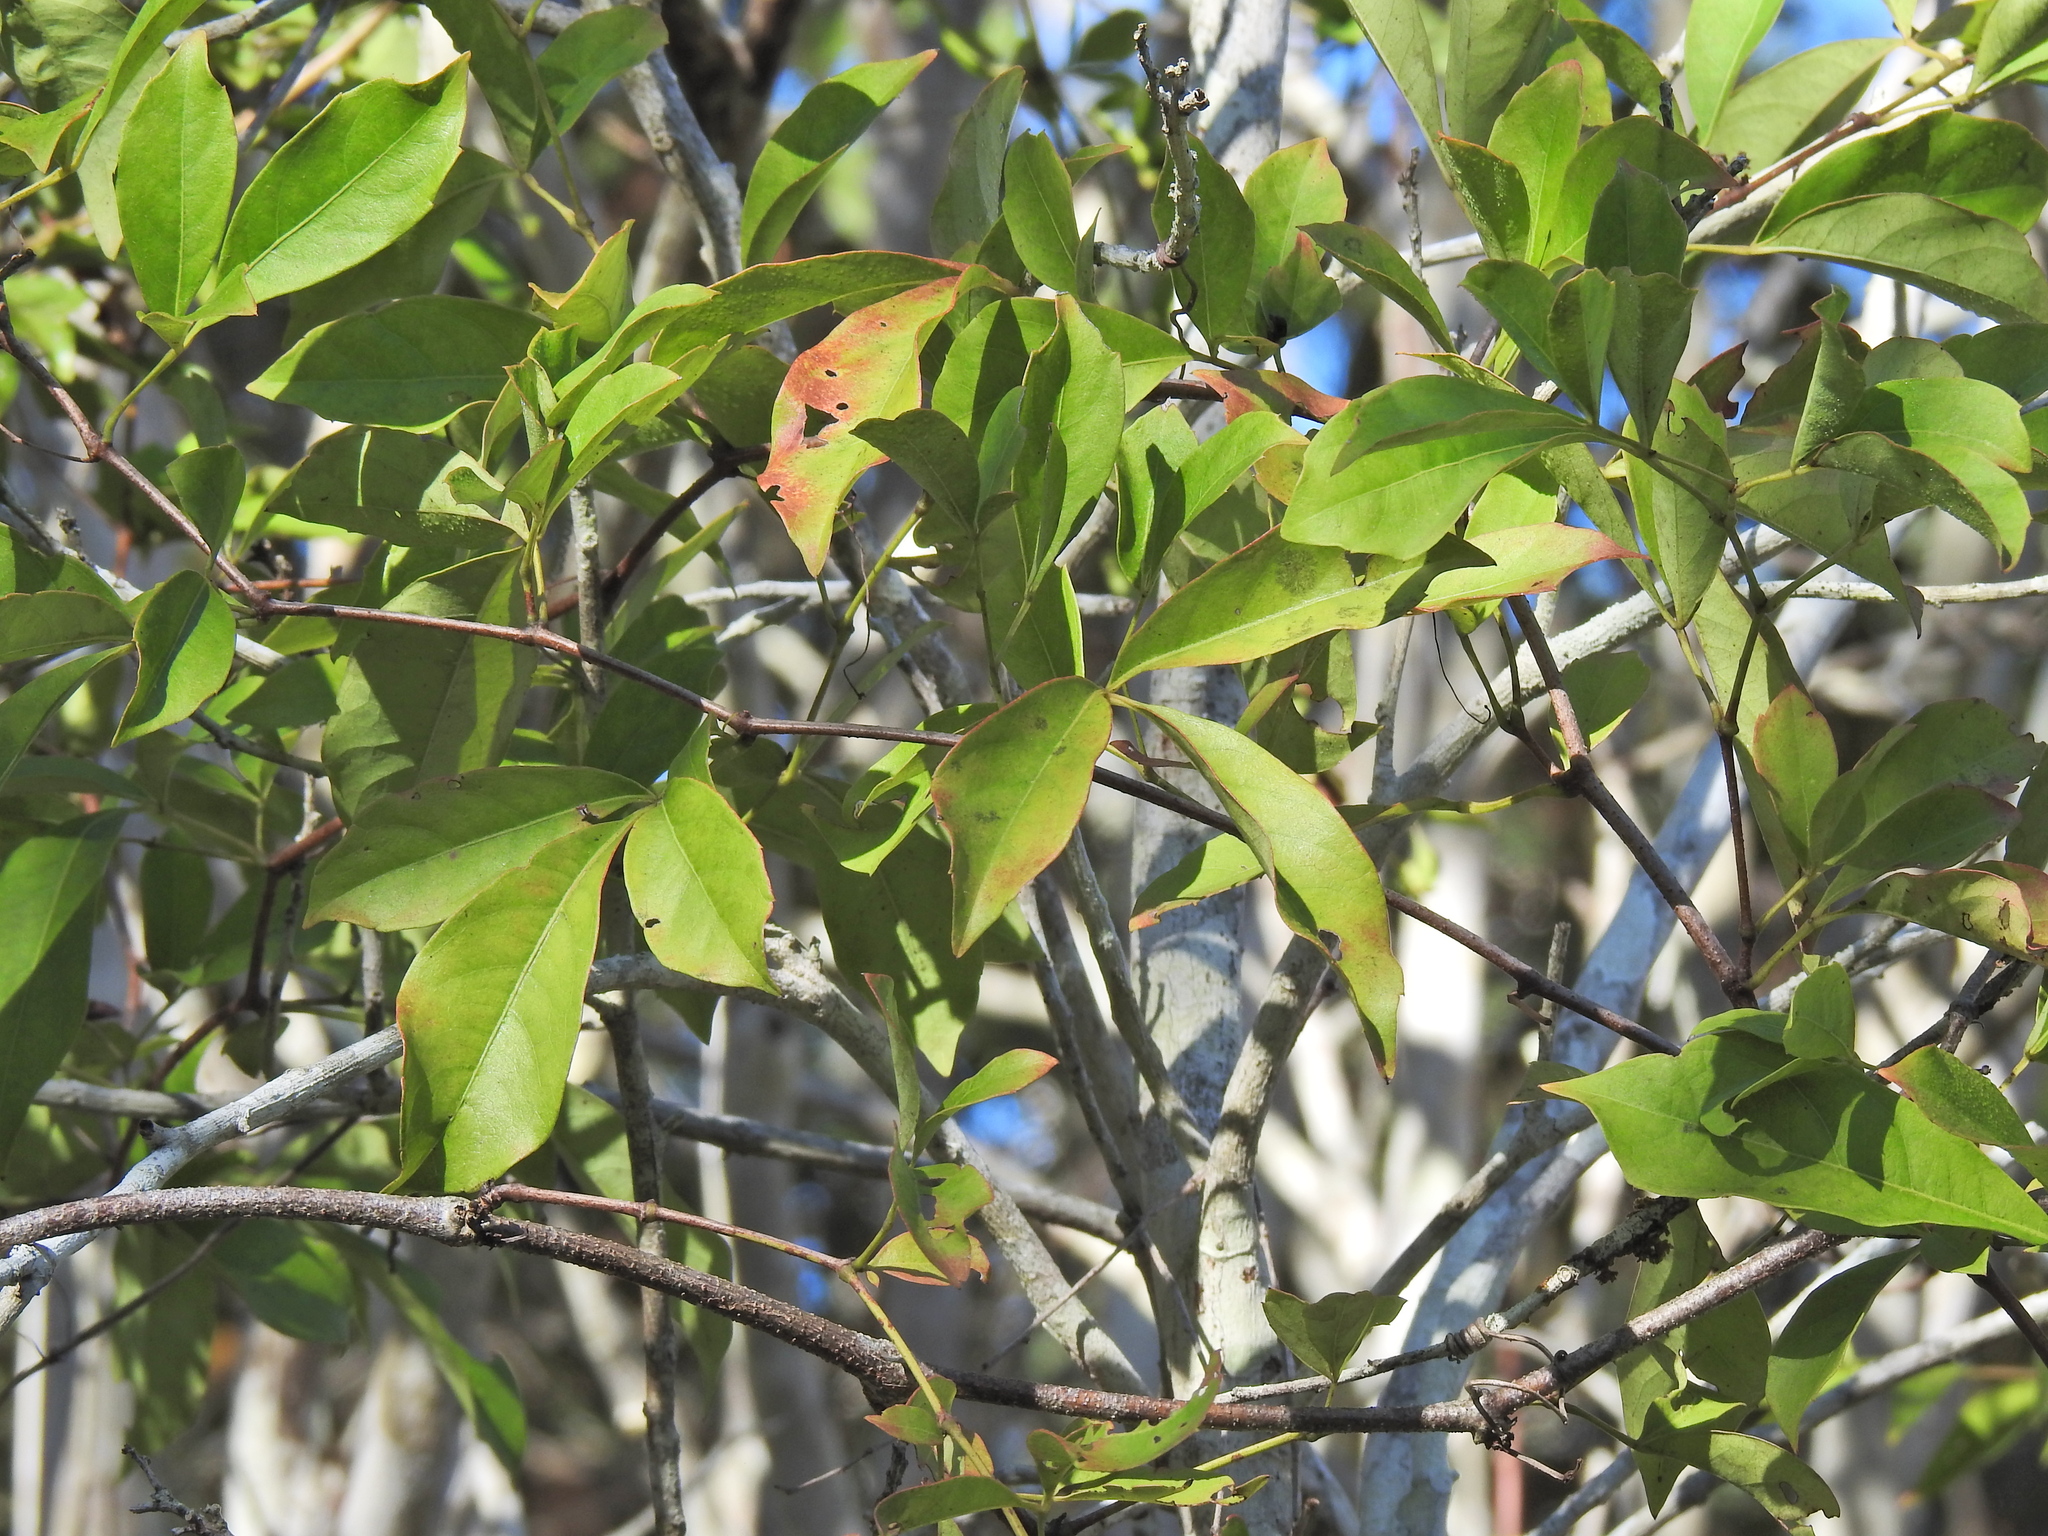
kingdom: Plantae
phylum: Tracheophyta
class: Magnoliopsida
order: Vitales
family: Vitaceae
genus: Clematicissus
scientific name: Clematicissus opaca
